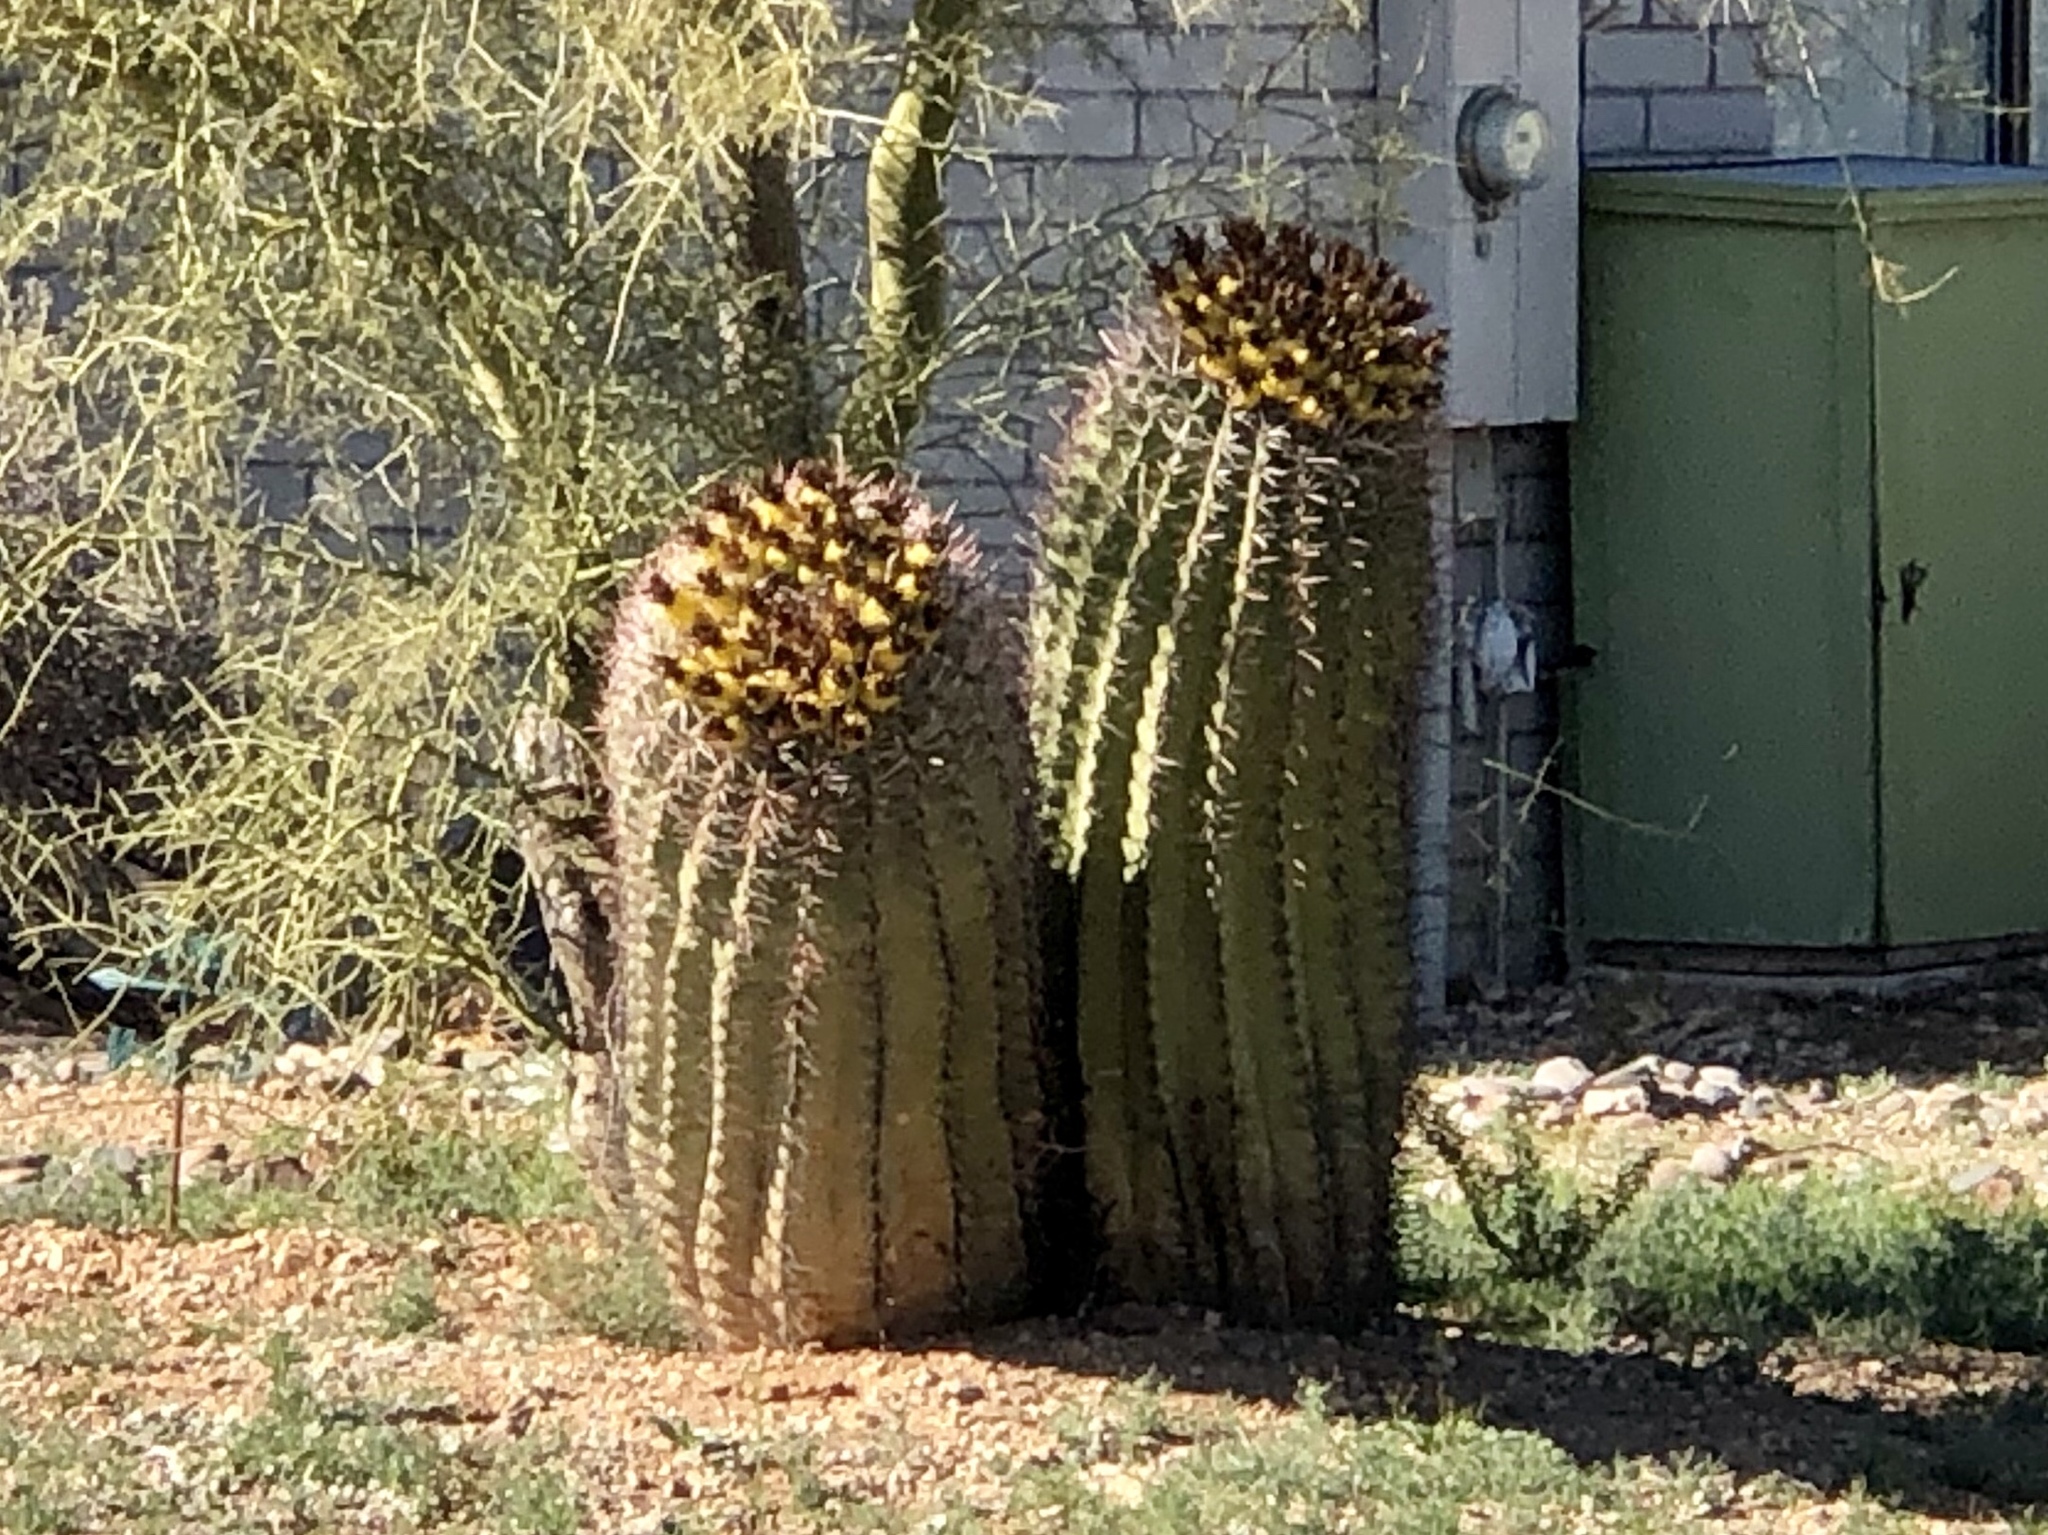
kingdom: Plantae
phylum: Tracheophyta
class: Magnoliopsida
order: Caryophyllales
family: Cactaceae
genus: Ferocactus
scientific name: Ferocactus wislizeni
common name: Candy barrel cactus
